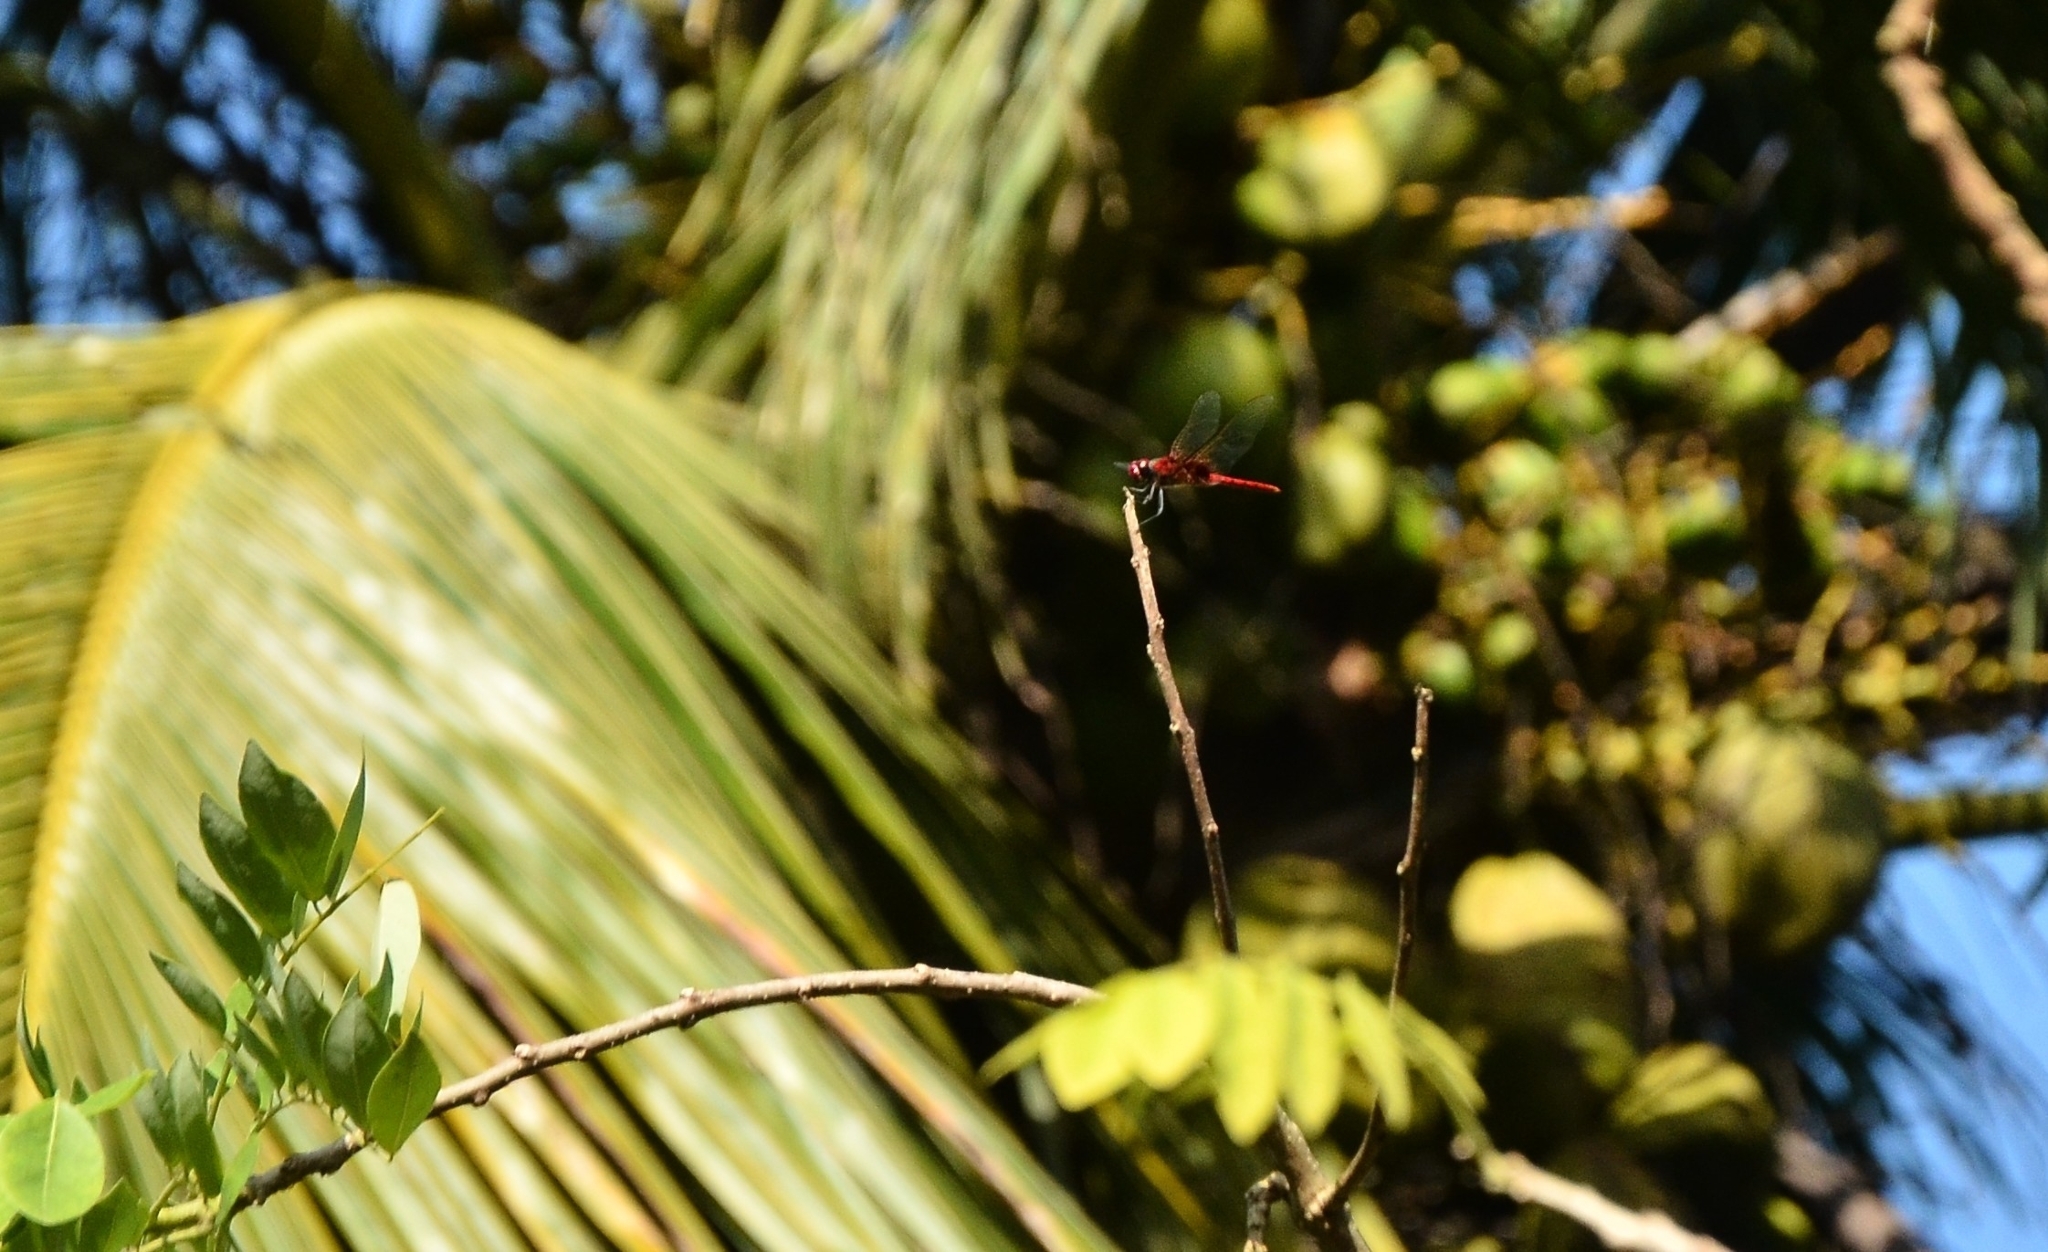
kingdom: Animalia
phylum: Arthropoda
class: Insecta
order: Odonata
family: Libellulidae
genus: Urothemis
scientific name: Urothemis signata
